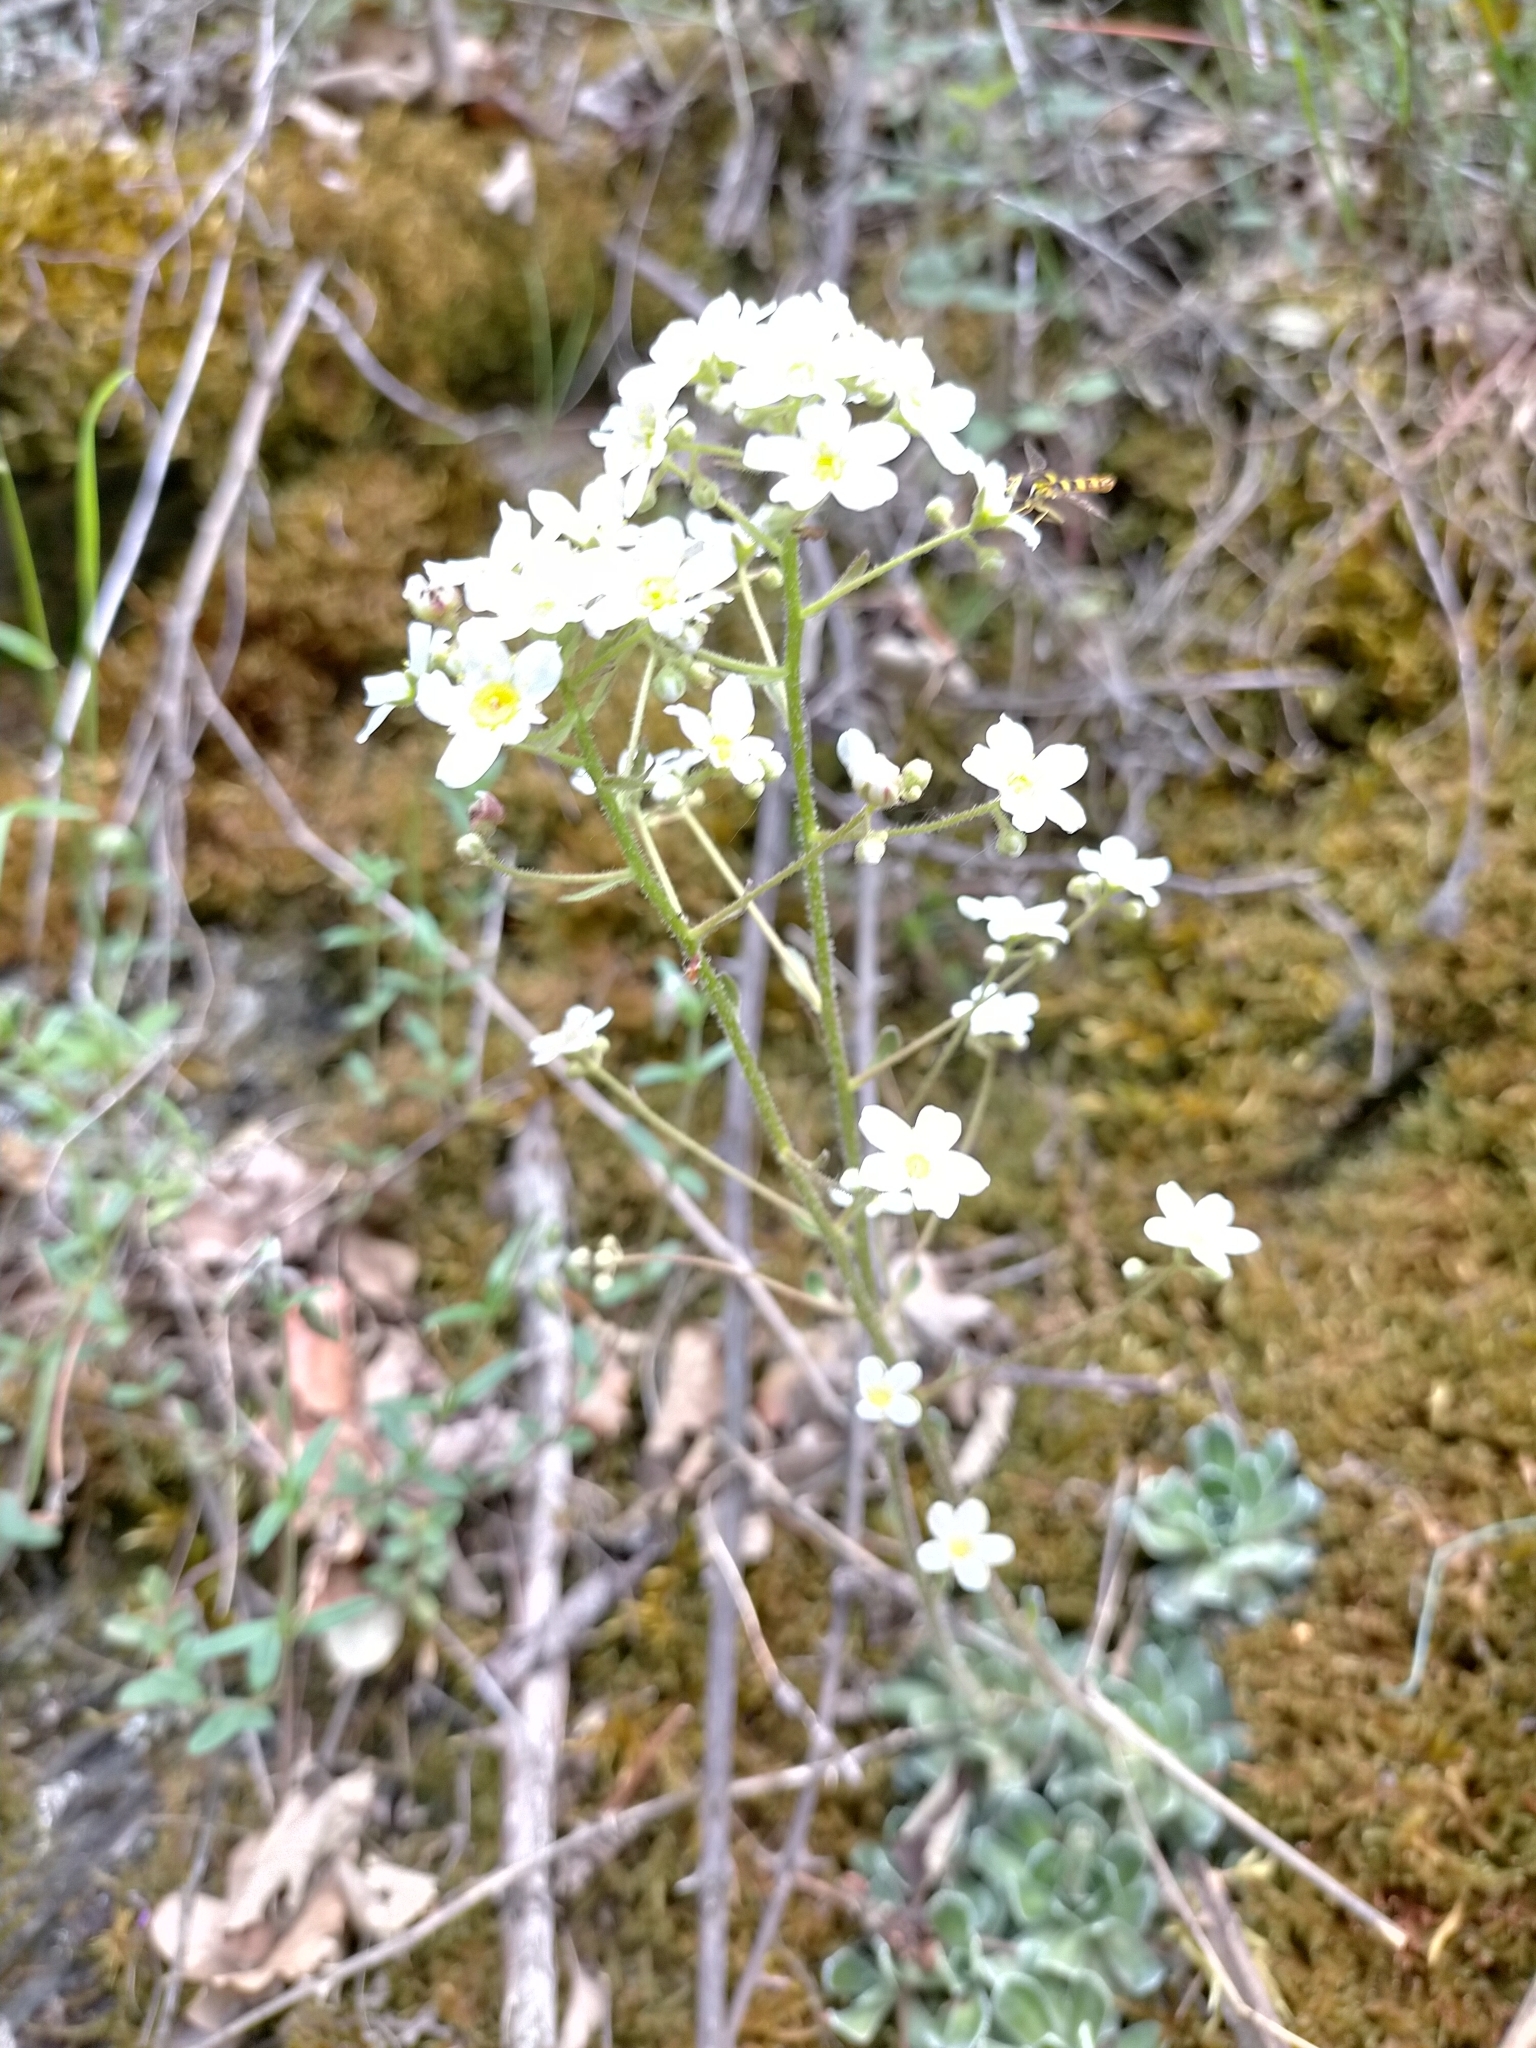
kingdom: Plantae
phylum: Tracheophyta
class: Magnoliopsida
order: Saxifragales
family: Saxifragaceae
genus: Saxifraga
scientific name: Saxifraga paniculata
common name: Livelong saxifrage
